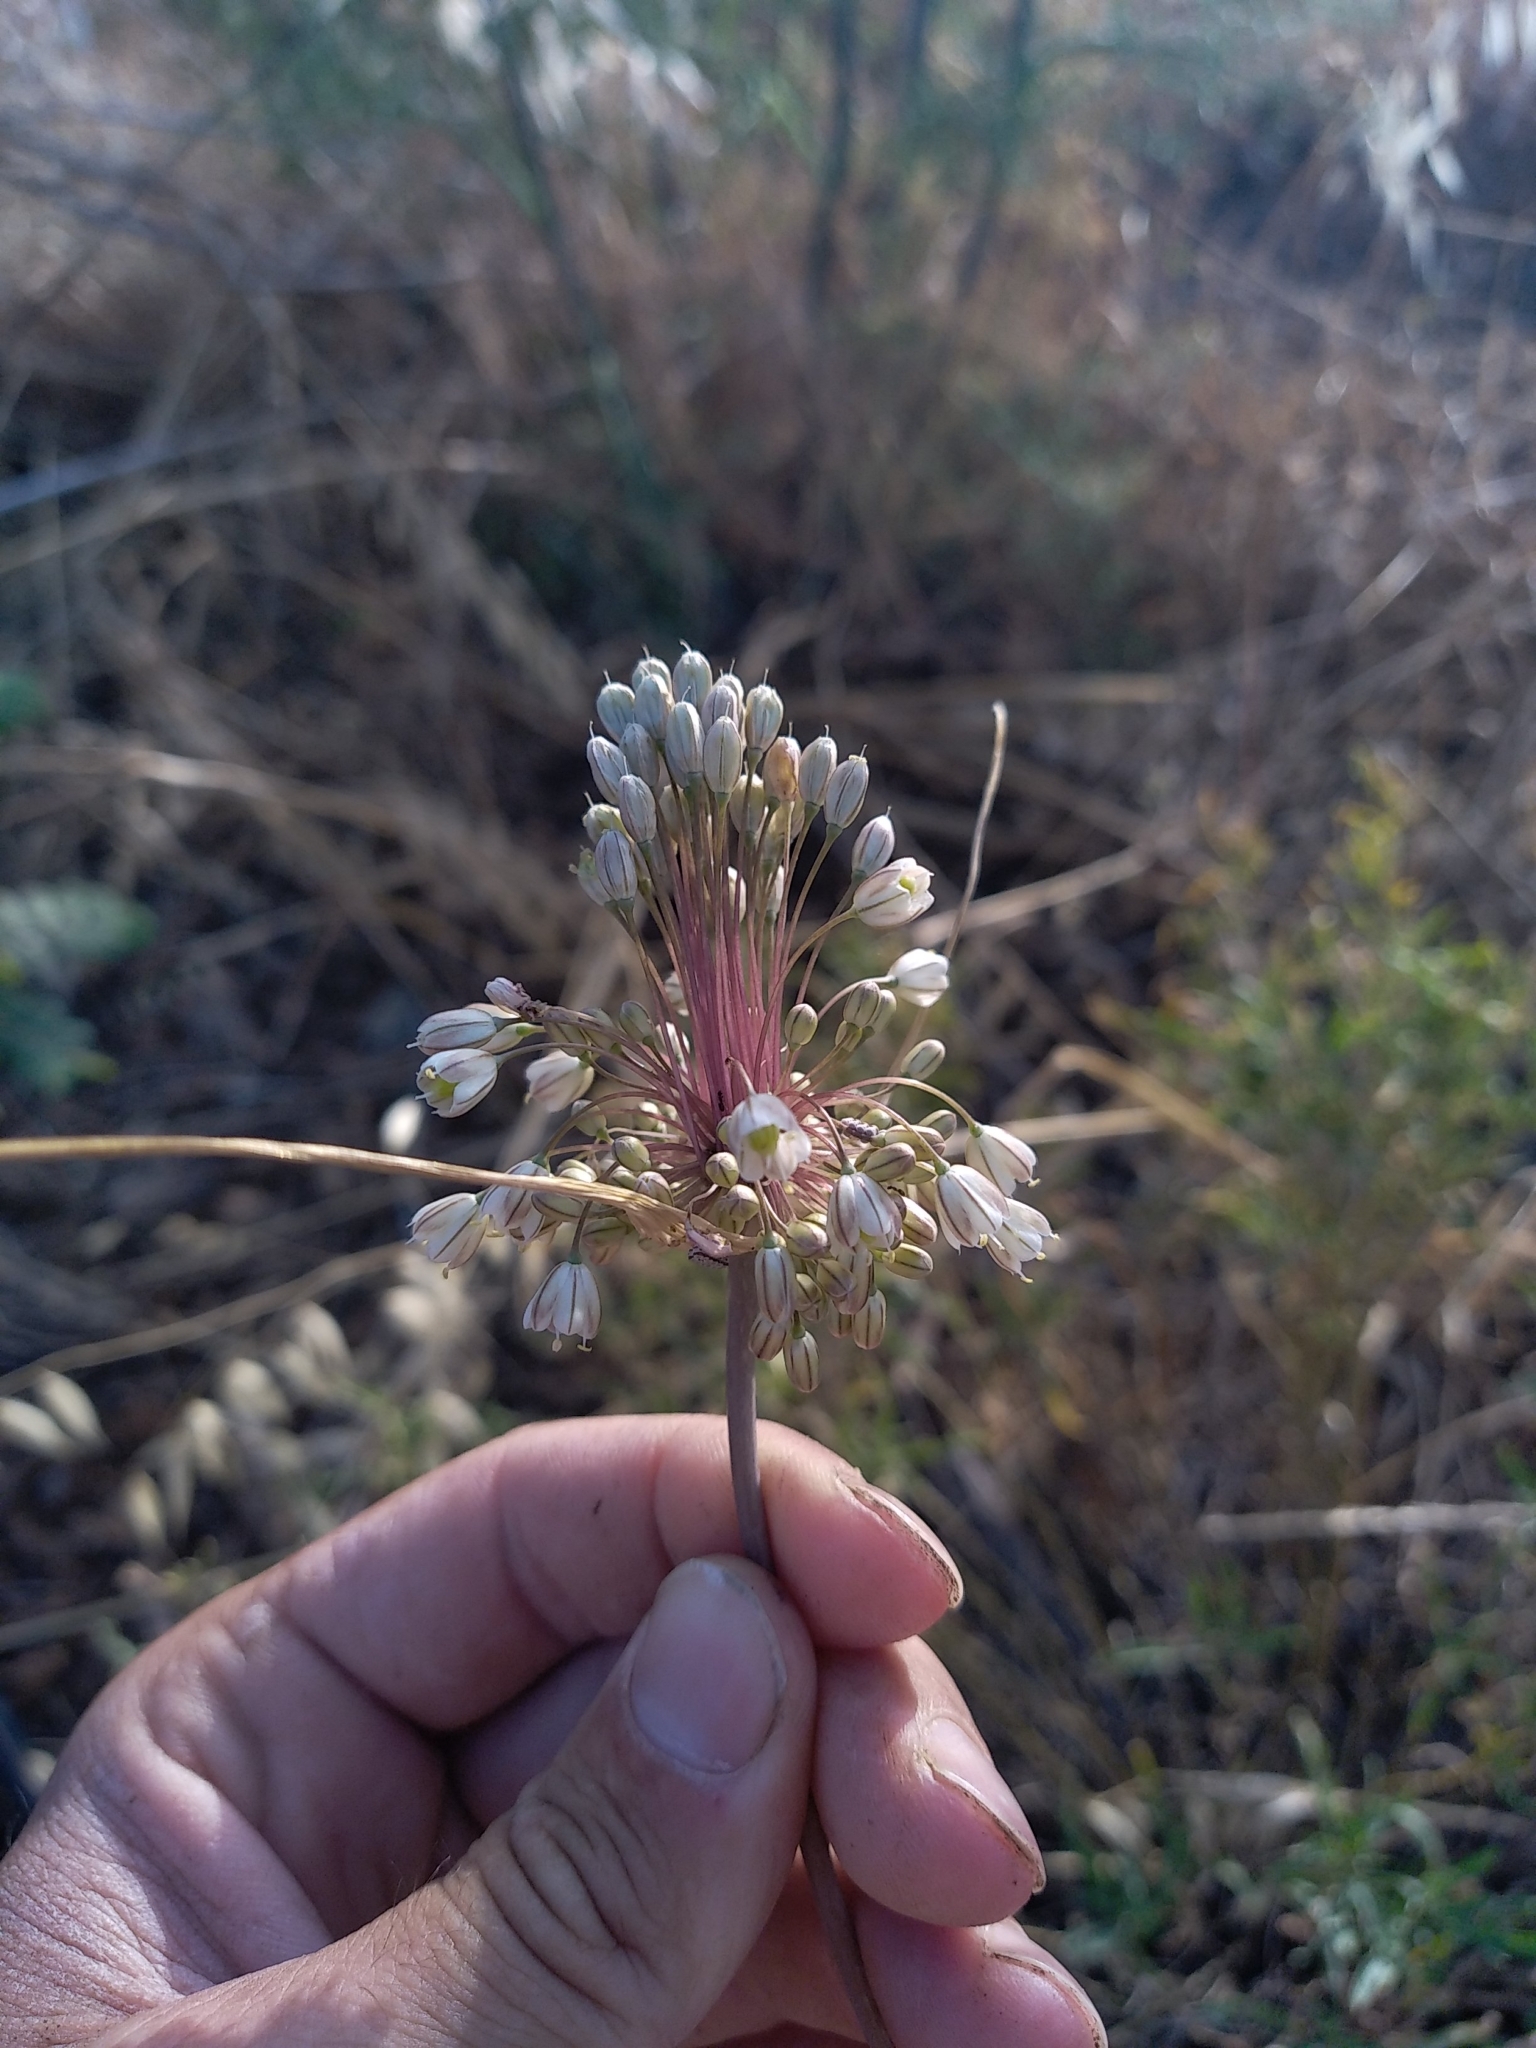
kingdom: Plantae
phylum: Tracheophyta
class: Liliopsida
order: Asparagales
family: Amaryllidaceae
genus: Allium
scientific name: Allium longispathum
